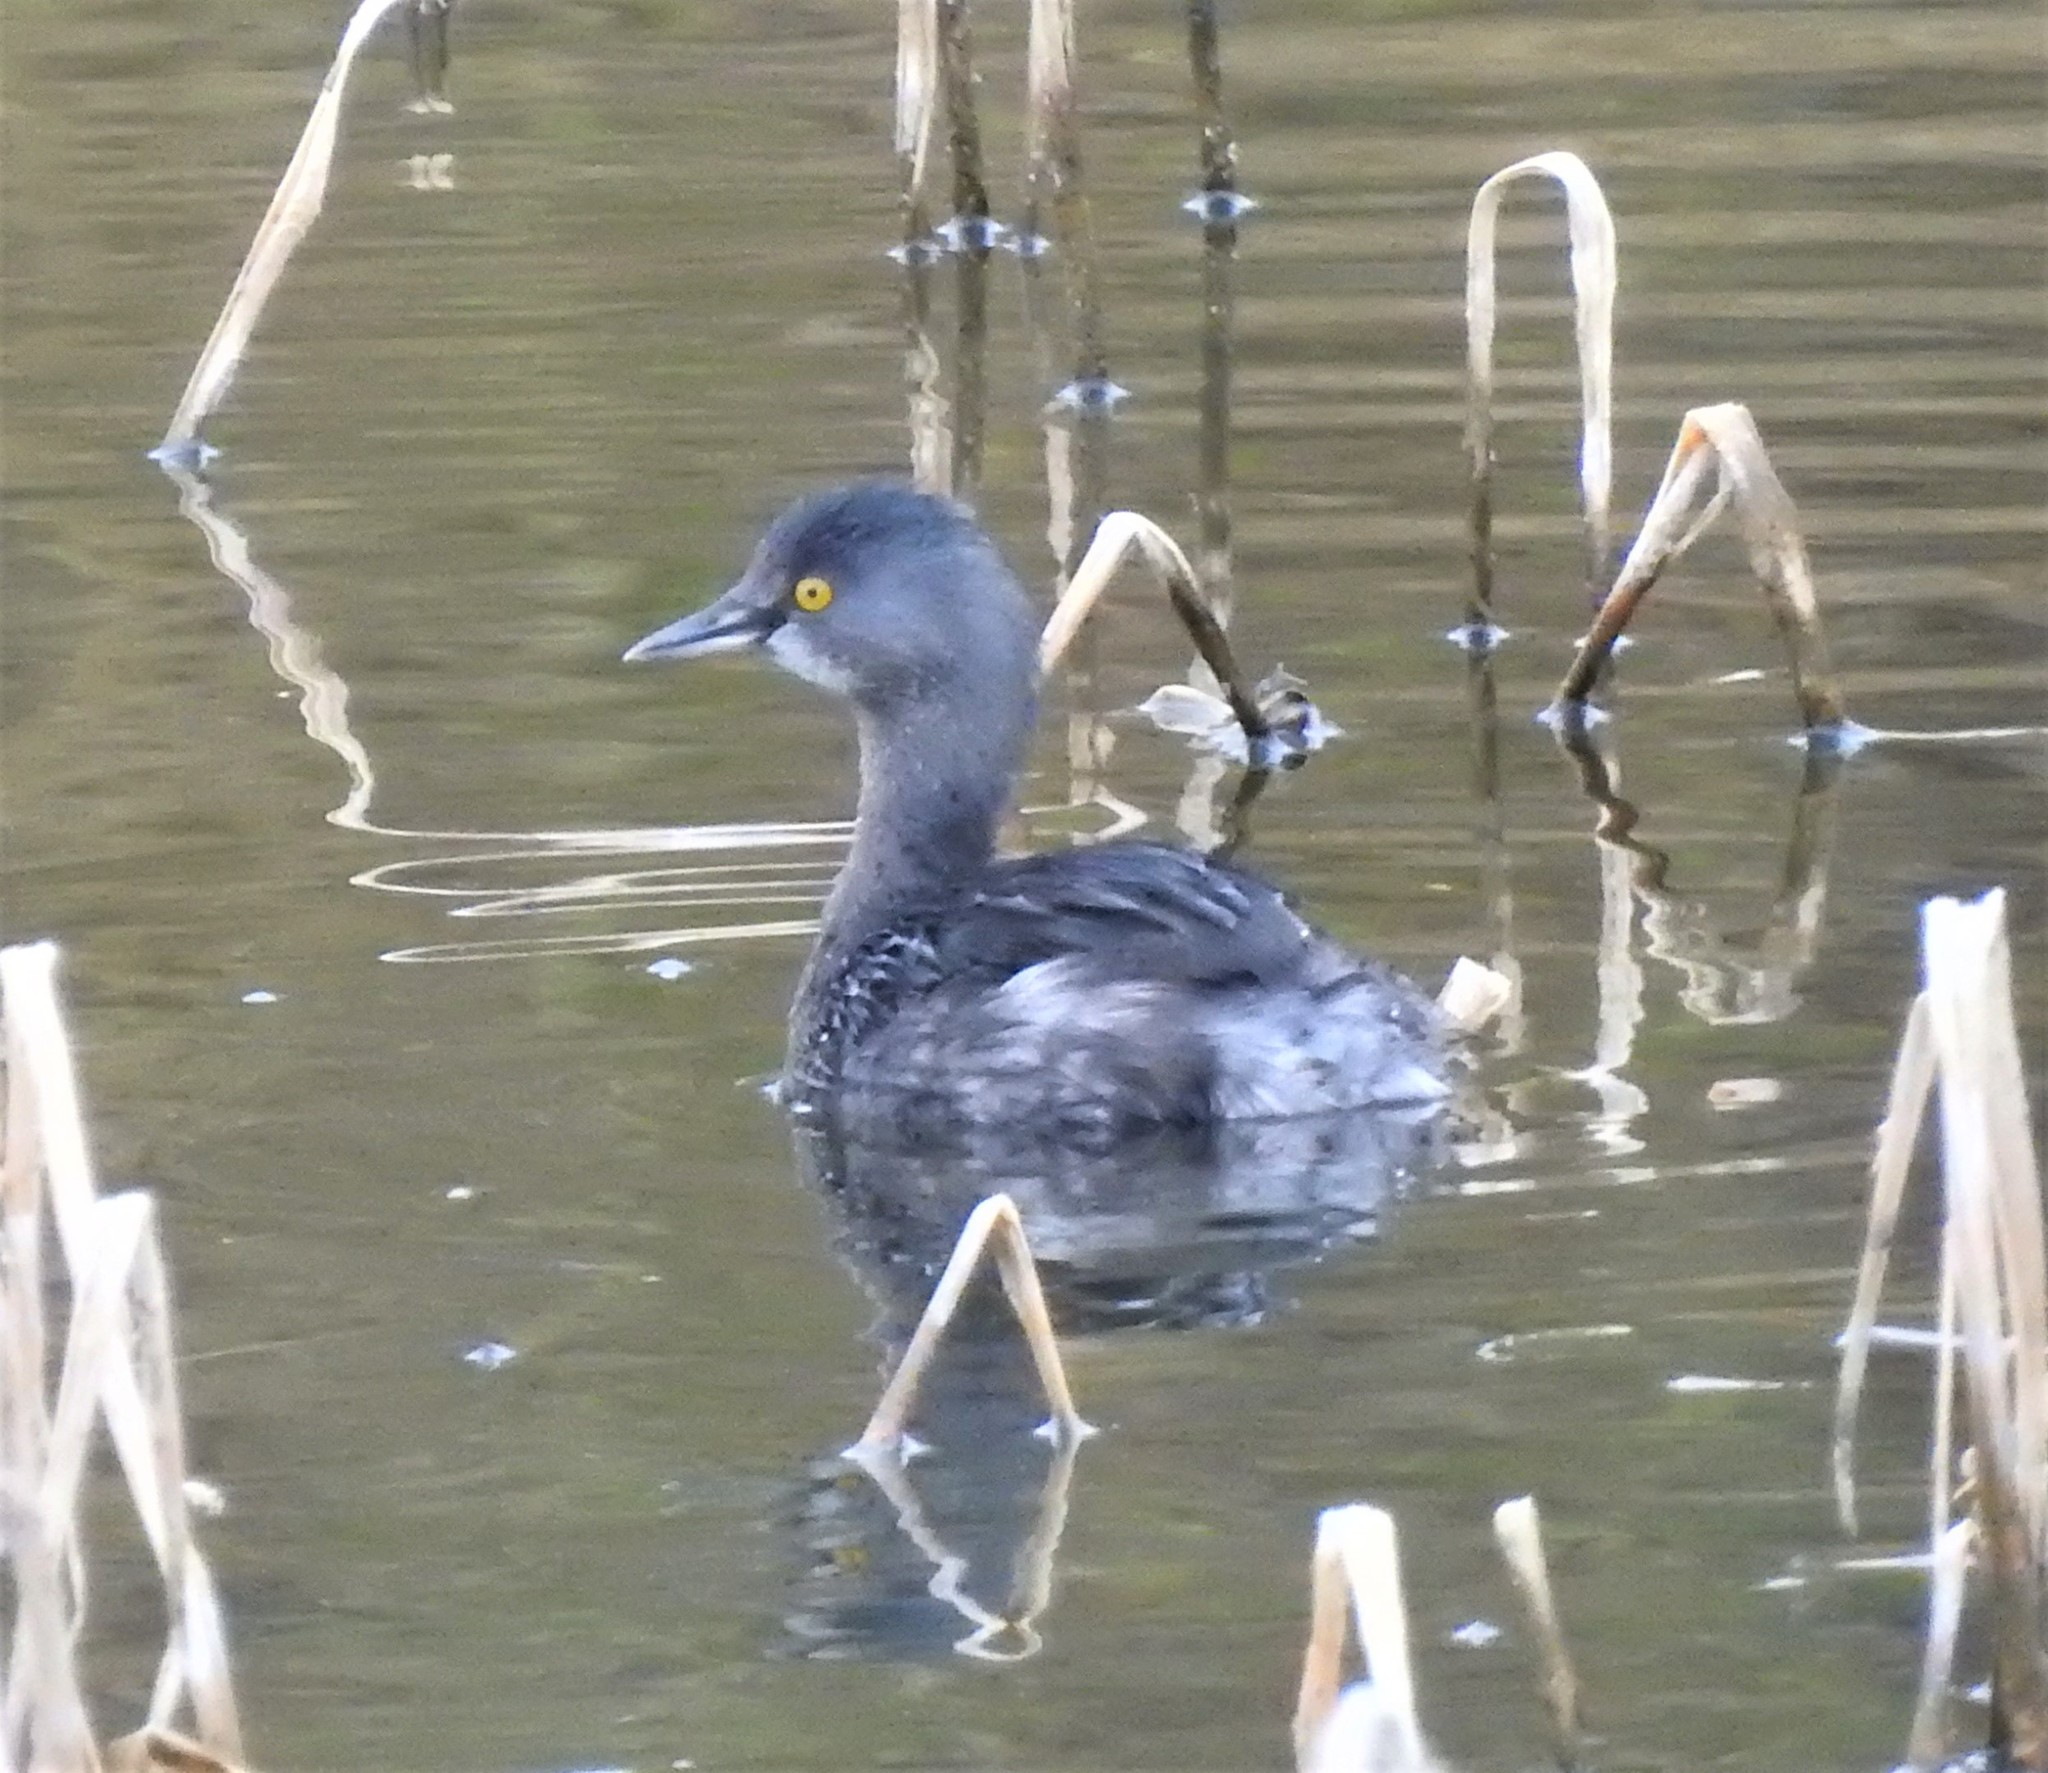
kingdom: Animalia
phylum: Chordata
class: Aves
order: Podicipediformes
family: Podicipedidae
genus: Tachybaptus
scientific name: Tachybaptus dominicus
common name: Least grebe
